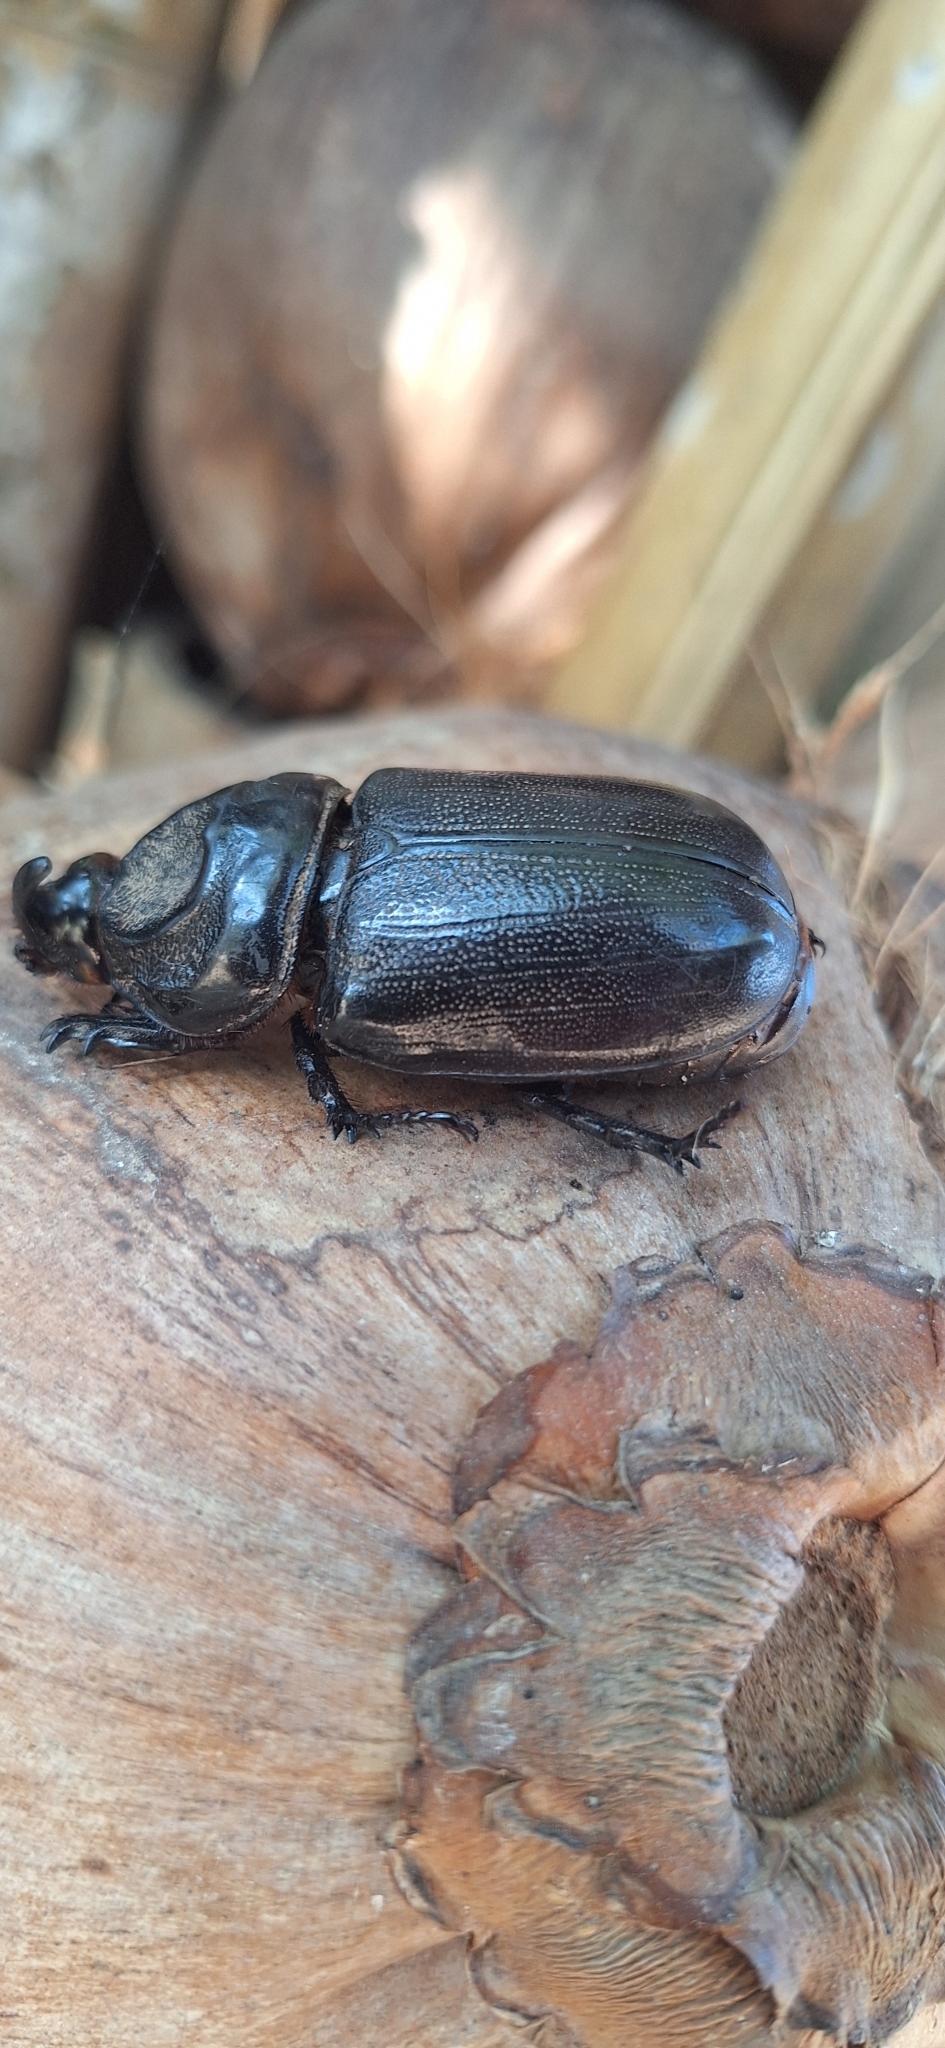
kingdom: Animalia
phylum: Arthropoda
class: Insecta
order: Coleoptera
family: Scarabaeidae
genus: Oryctes
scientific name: Oryctes rhinoceros
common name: Coconut rhinoceros beetle
